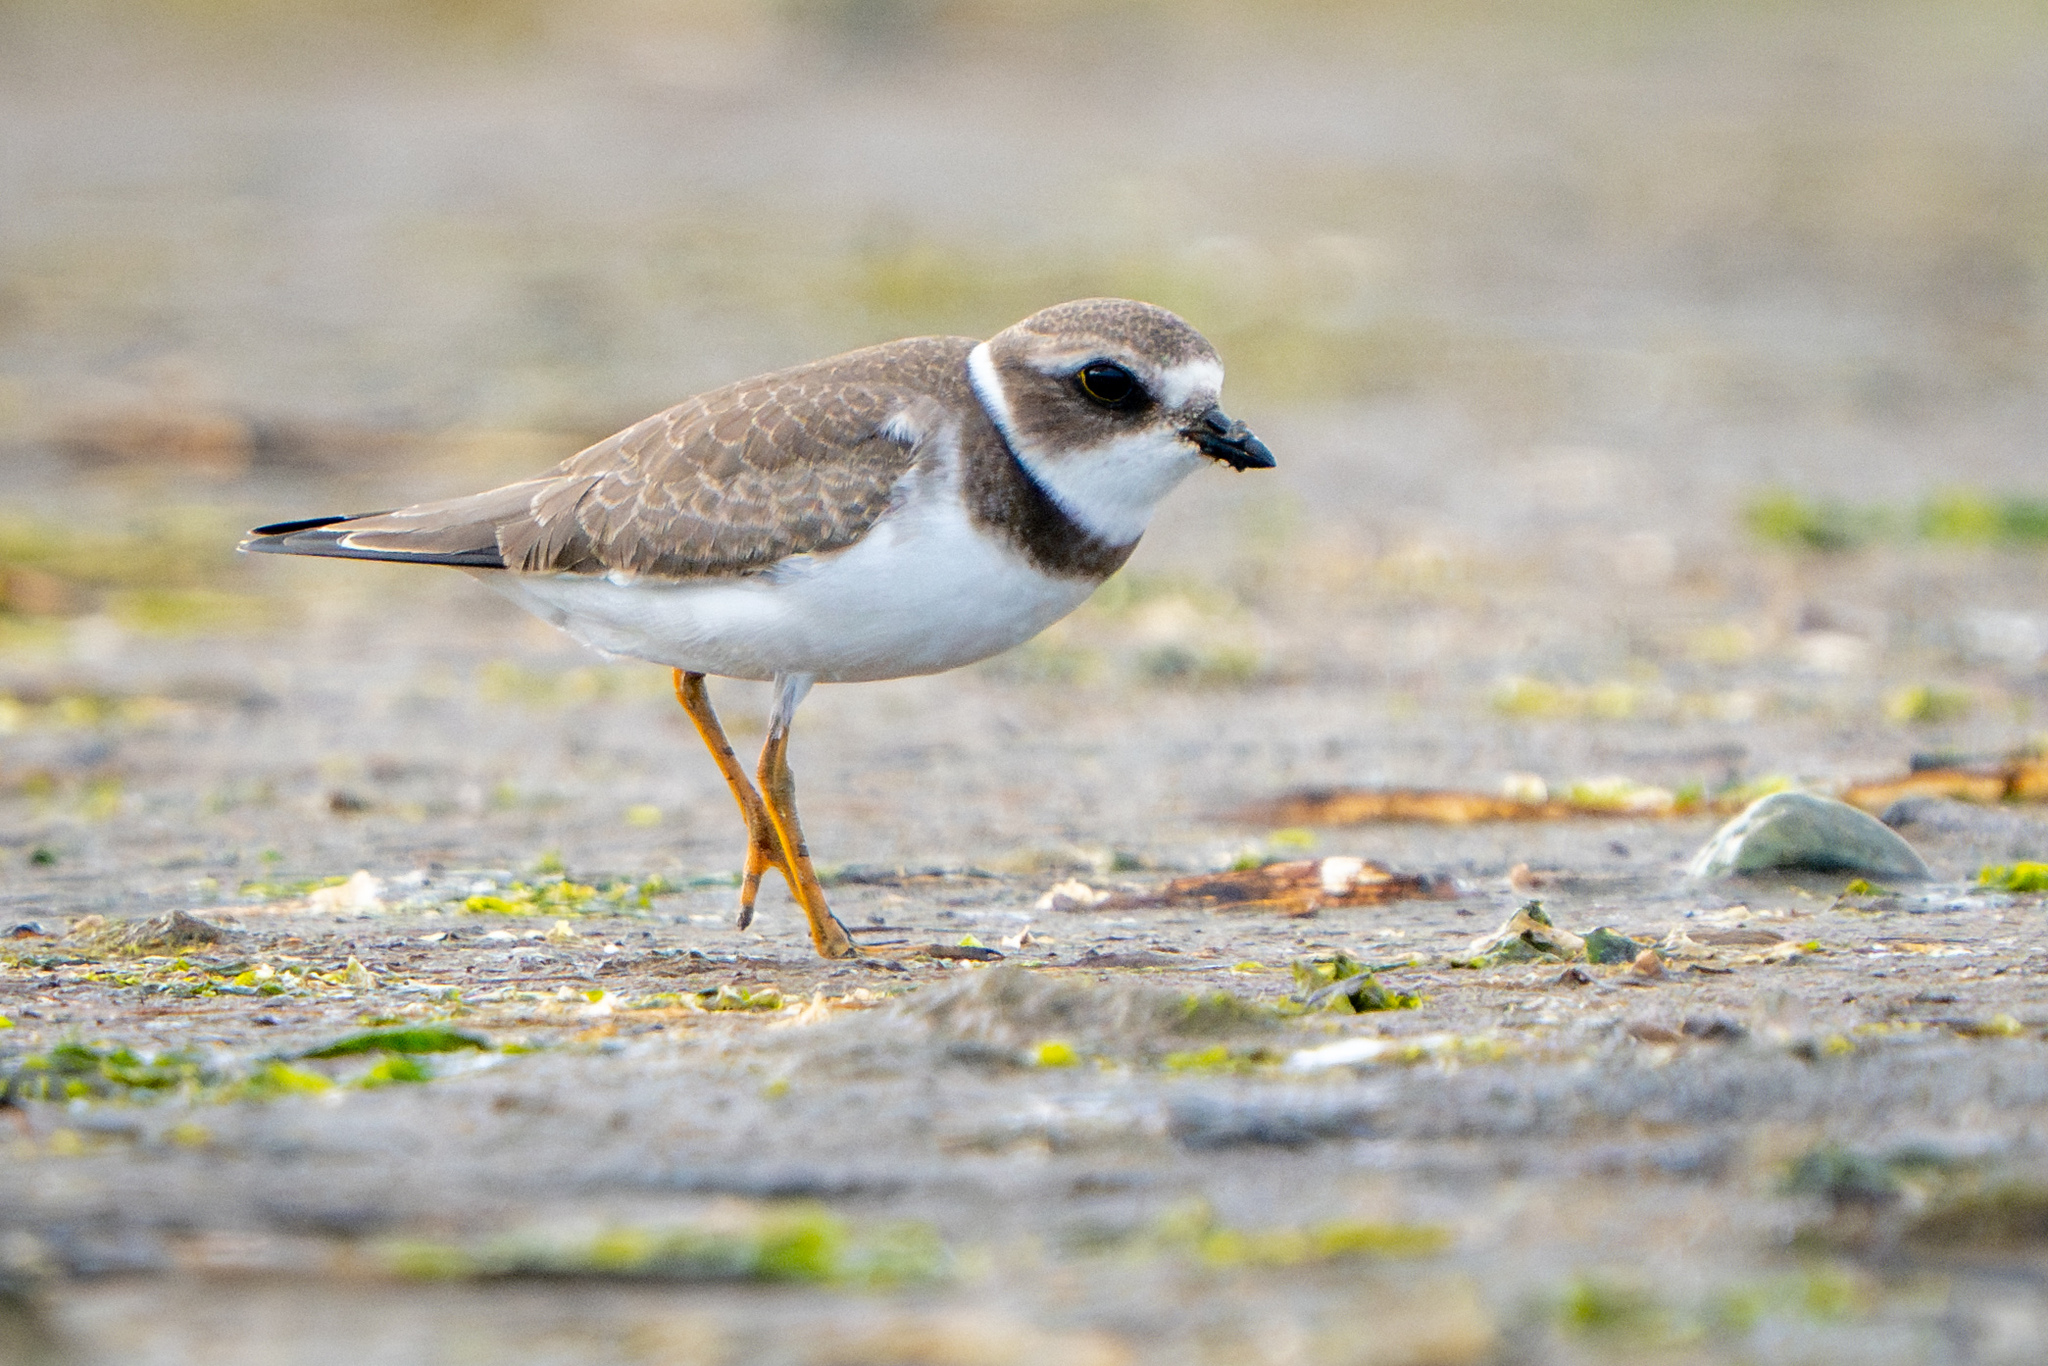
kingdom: Animalia
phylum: Chordata
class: Aves
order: Charadriiformes
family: Charadriidae
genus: Charadrius
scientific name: Charadrius semipalmatus
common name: Semipalmated plover
